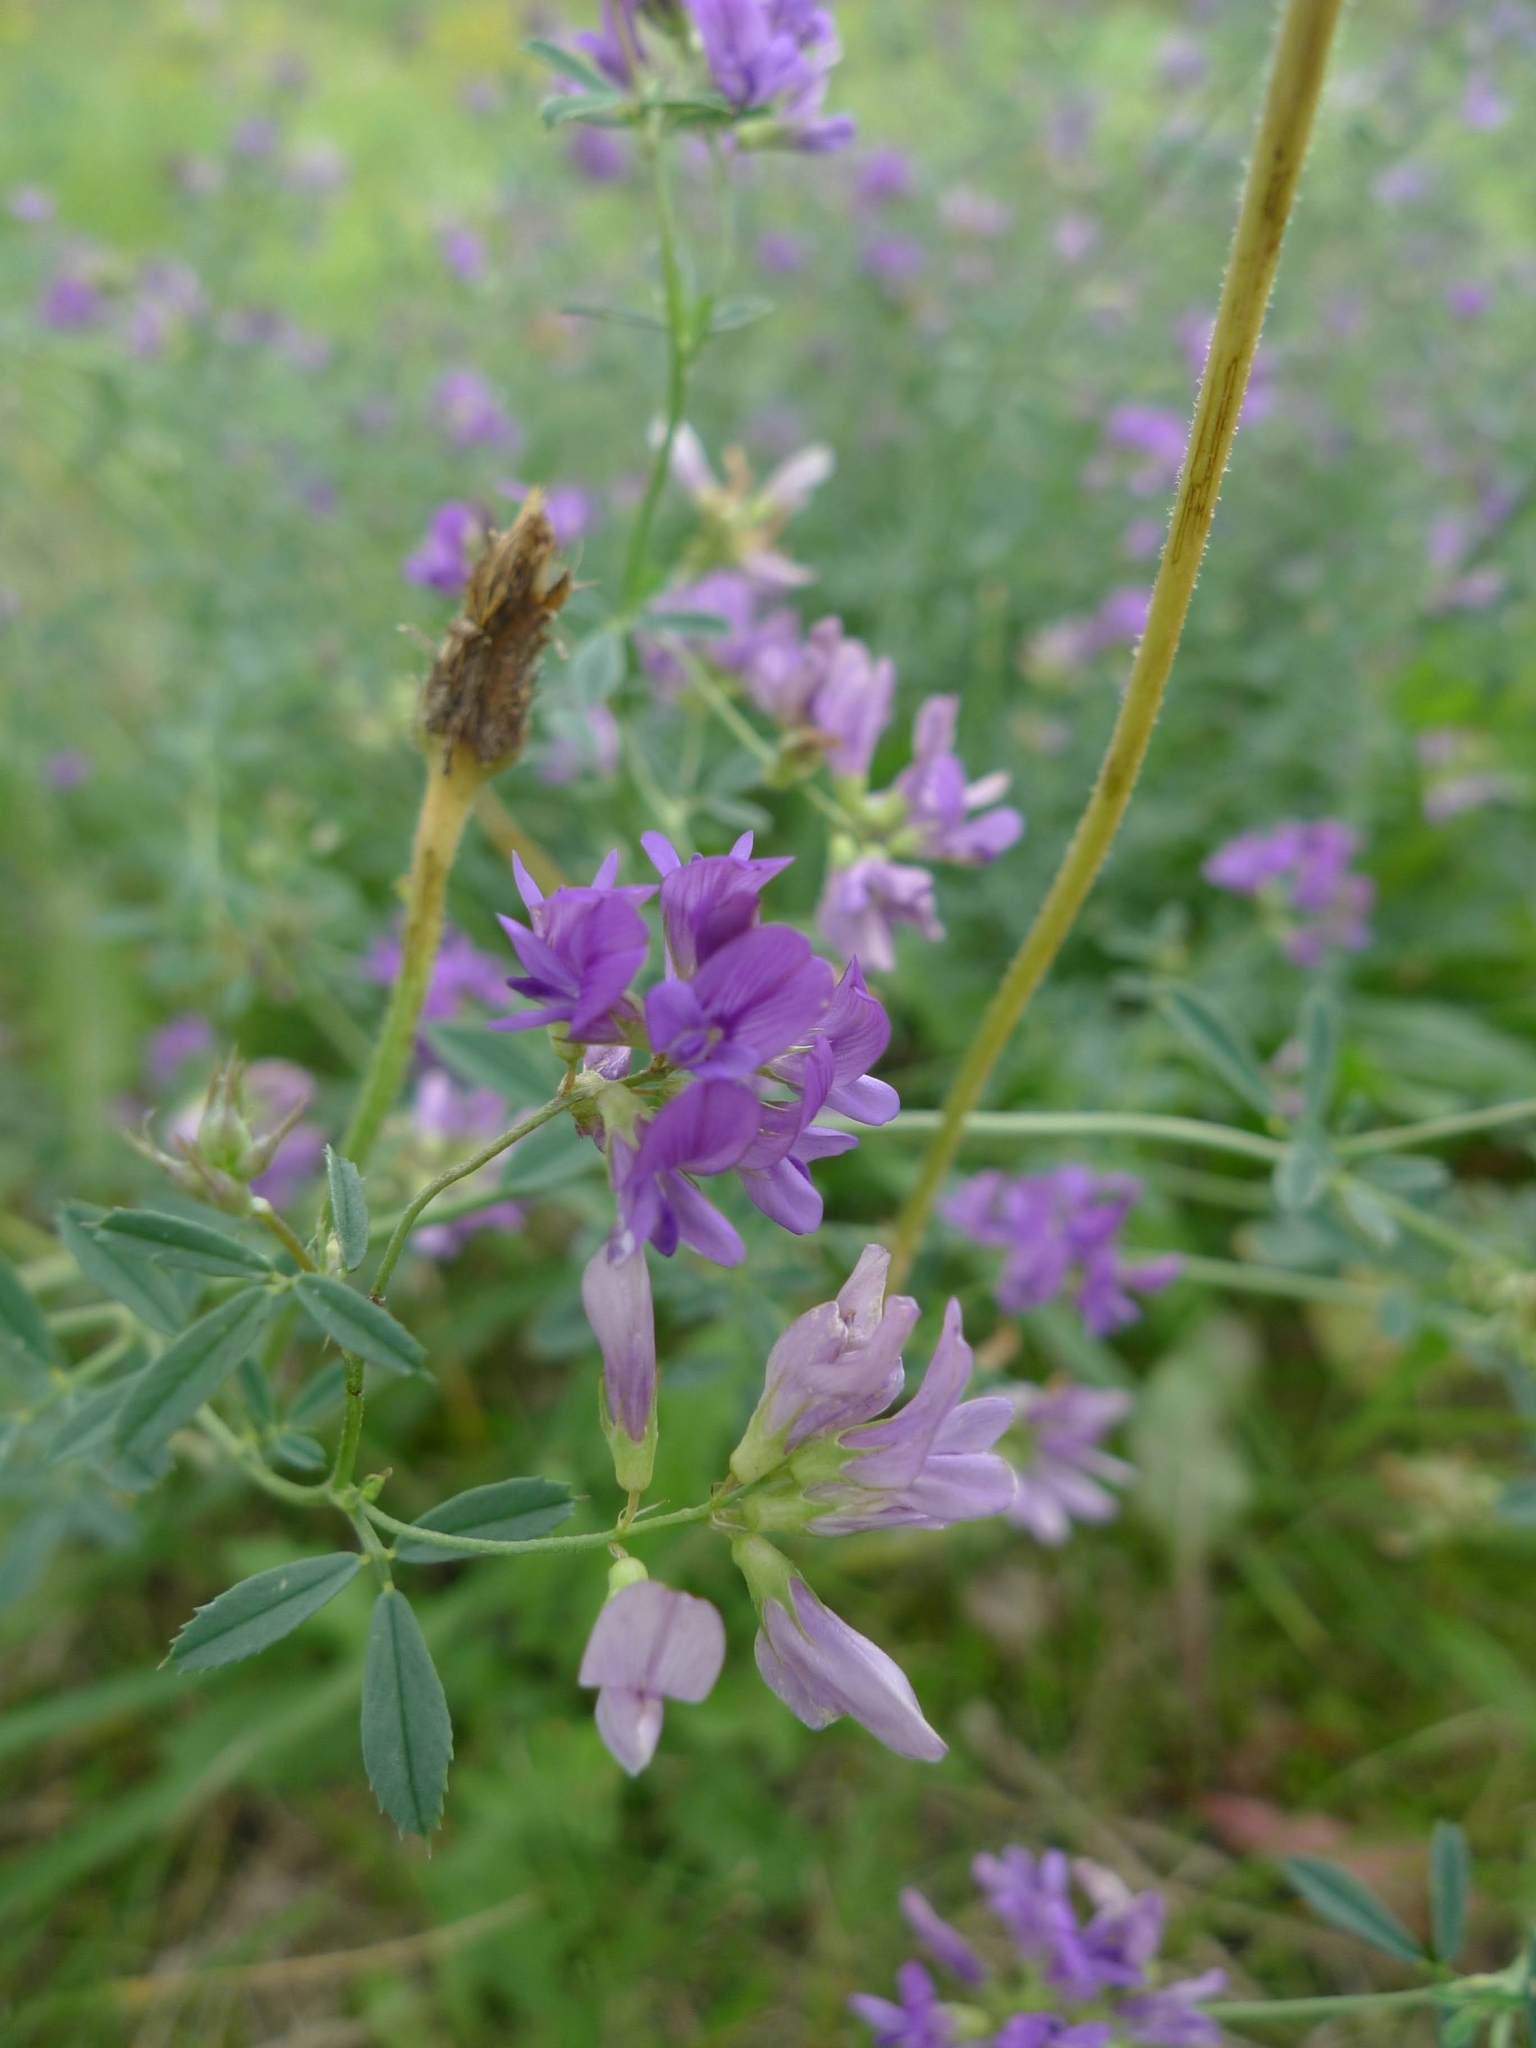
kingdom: Plantae
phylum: Tracheophyta
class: Magnoliopsida
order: Fabales
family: Fabaceae
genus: Medicago
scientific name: Medicago sativa
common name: Alfalfa
